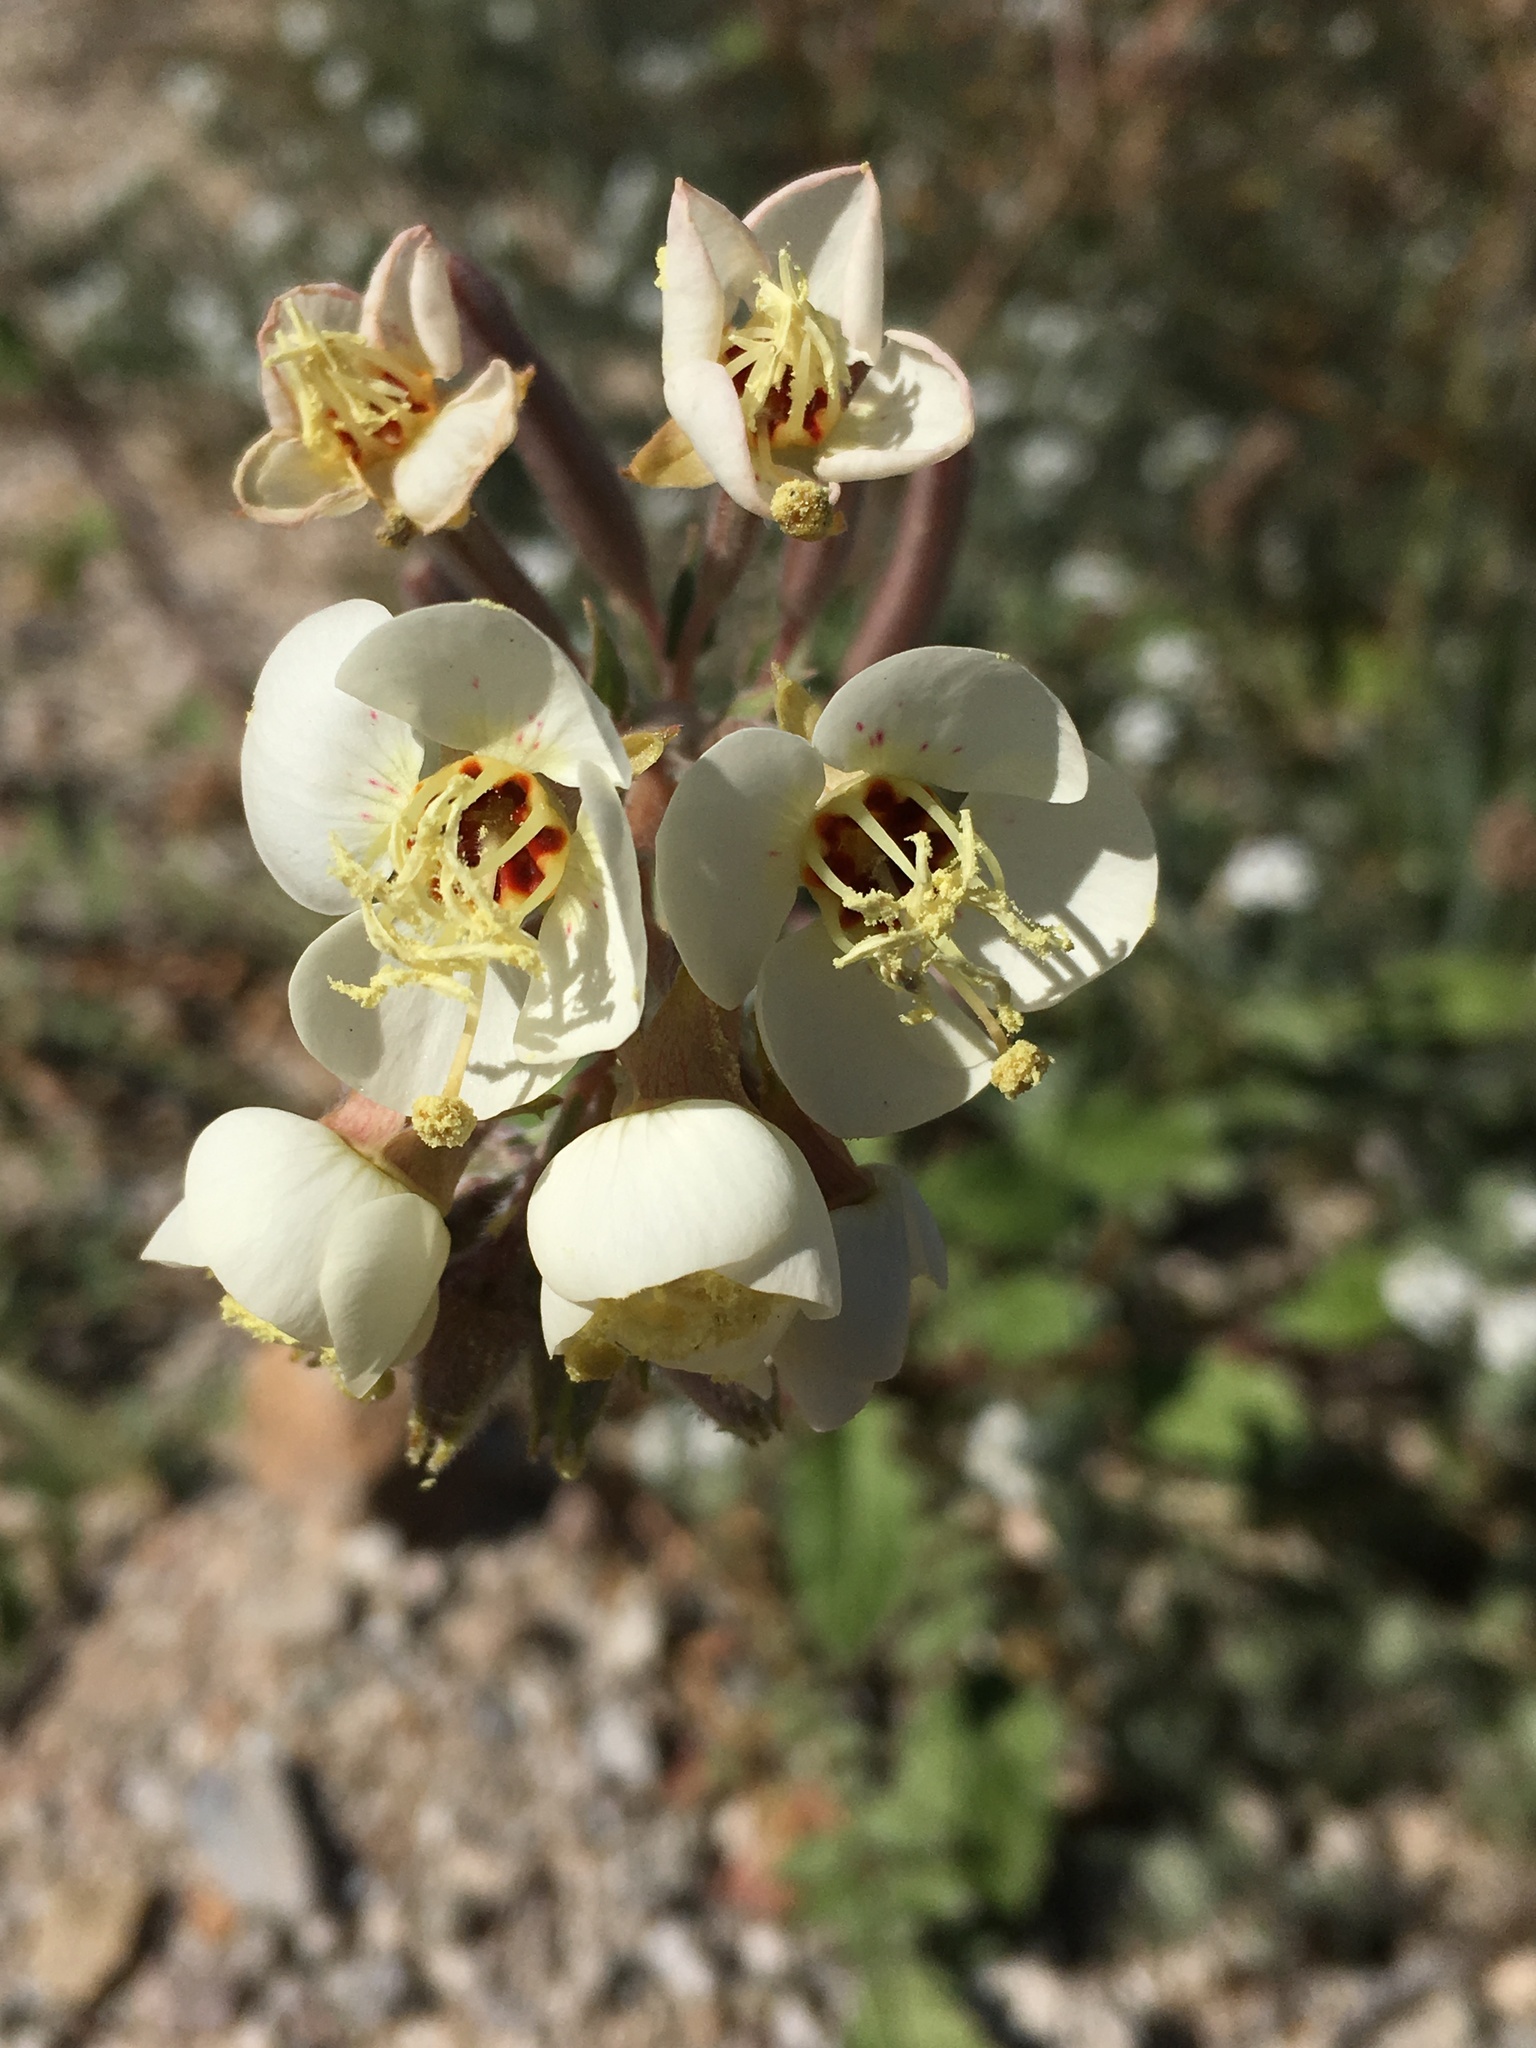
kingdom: Plantae
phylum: Tracheophyta
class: Magnoliopsida
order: Myrtales
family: Onagraceae
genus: Chylismia
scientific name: Chylismia claviformis
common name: Browneyes
